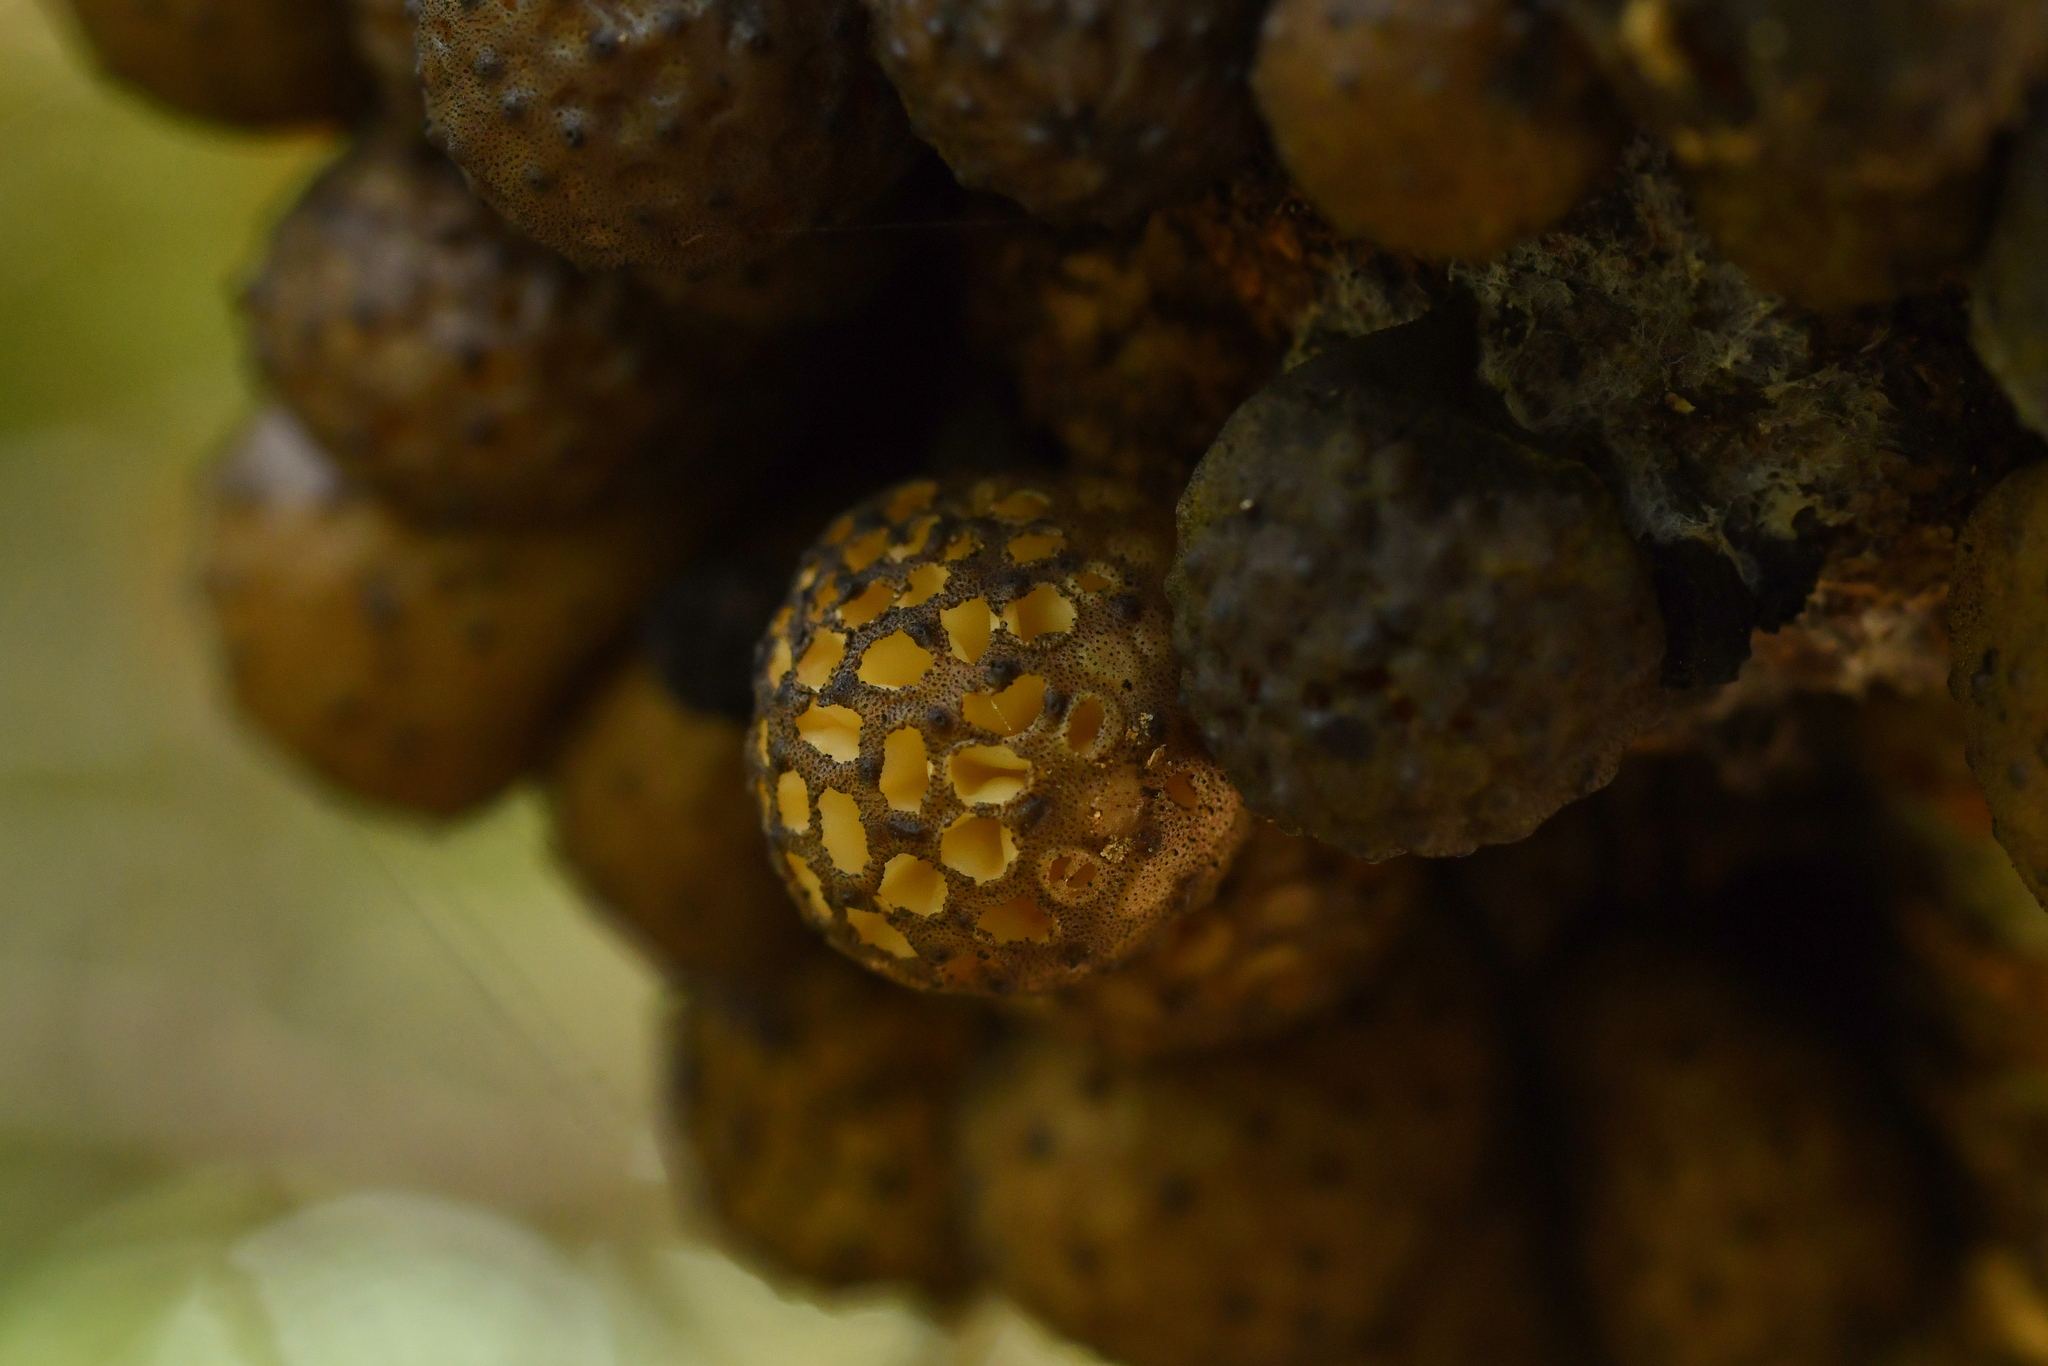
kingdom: Fungi
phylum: Ascomycota
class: Leotiomycetes
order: Cyttariales
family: Cyttariaceae
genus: Cyttaria
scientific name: Cyttaria nigra
